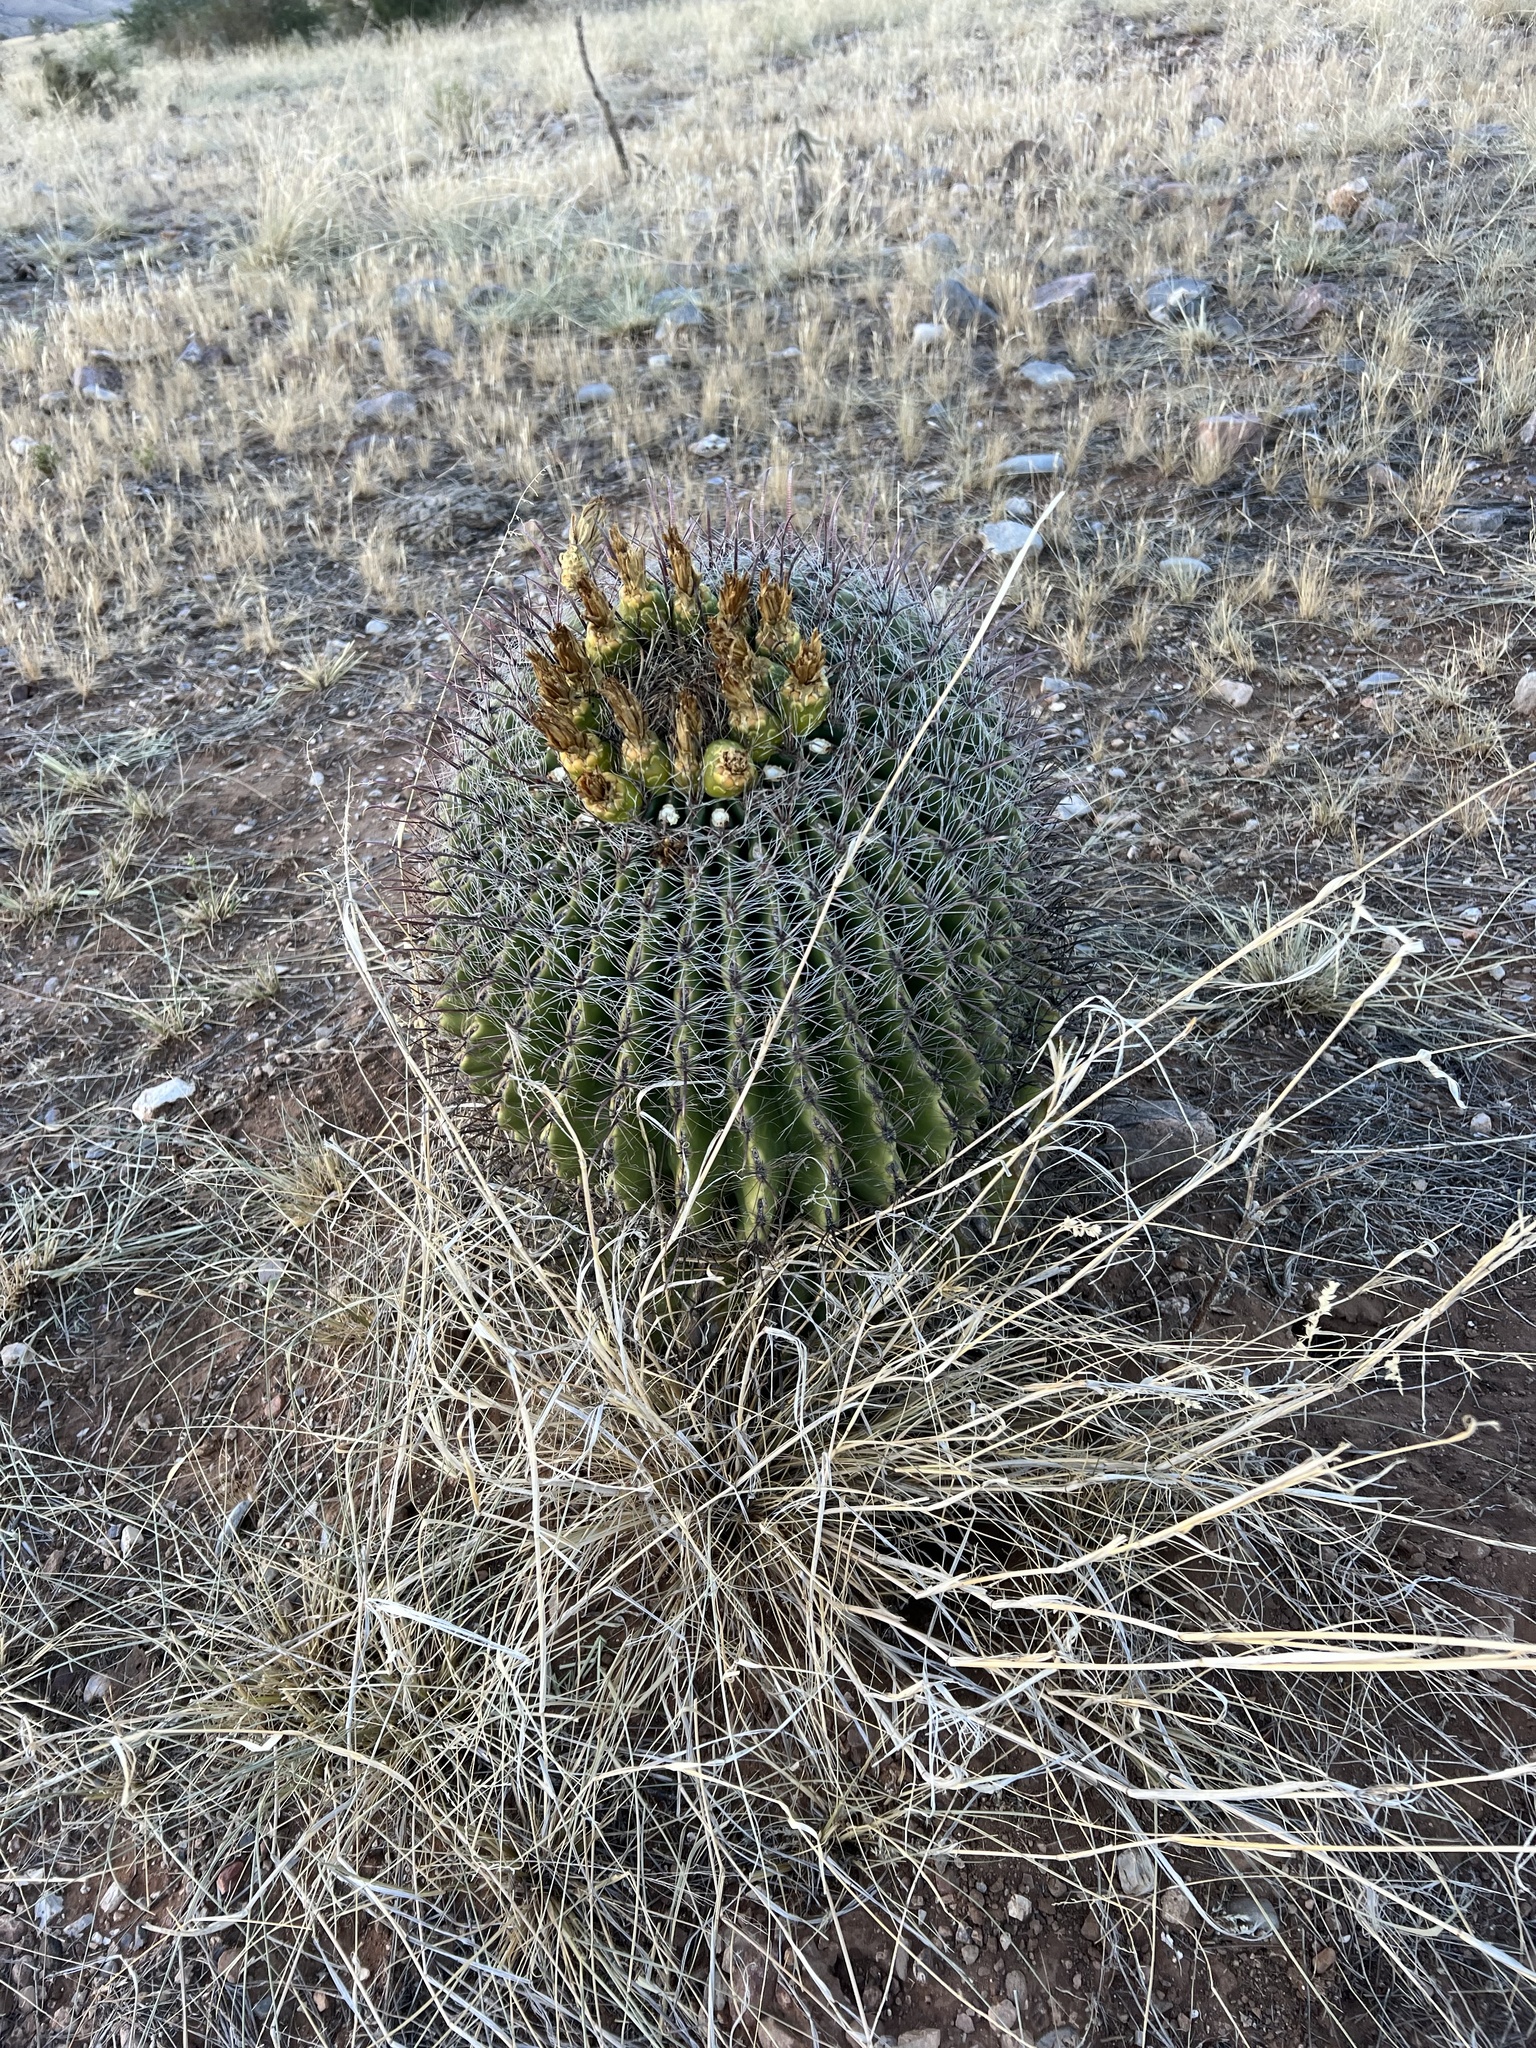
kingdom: Plantae
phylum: Tracheophyta
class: Magnoliopsida
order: Caryophyllales
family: Cactaceae
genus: Ferocactus
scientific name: Ferocactus wislizeni
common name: Candy barrel cactus
